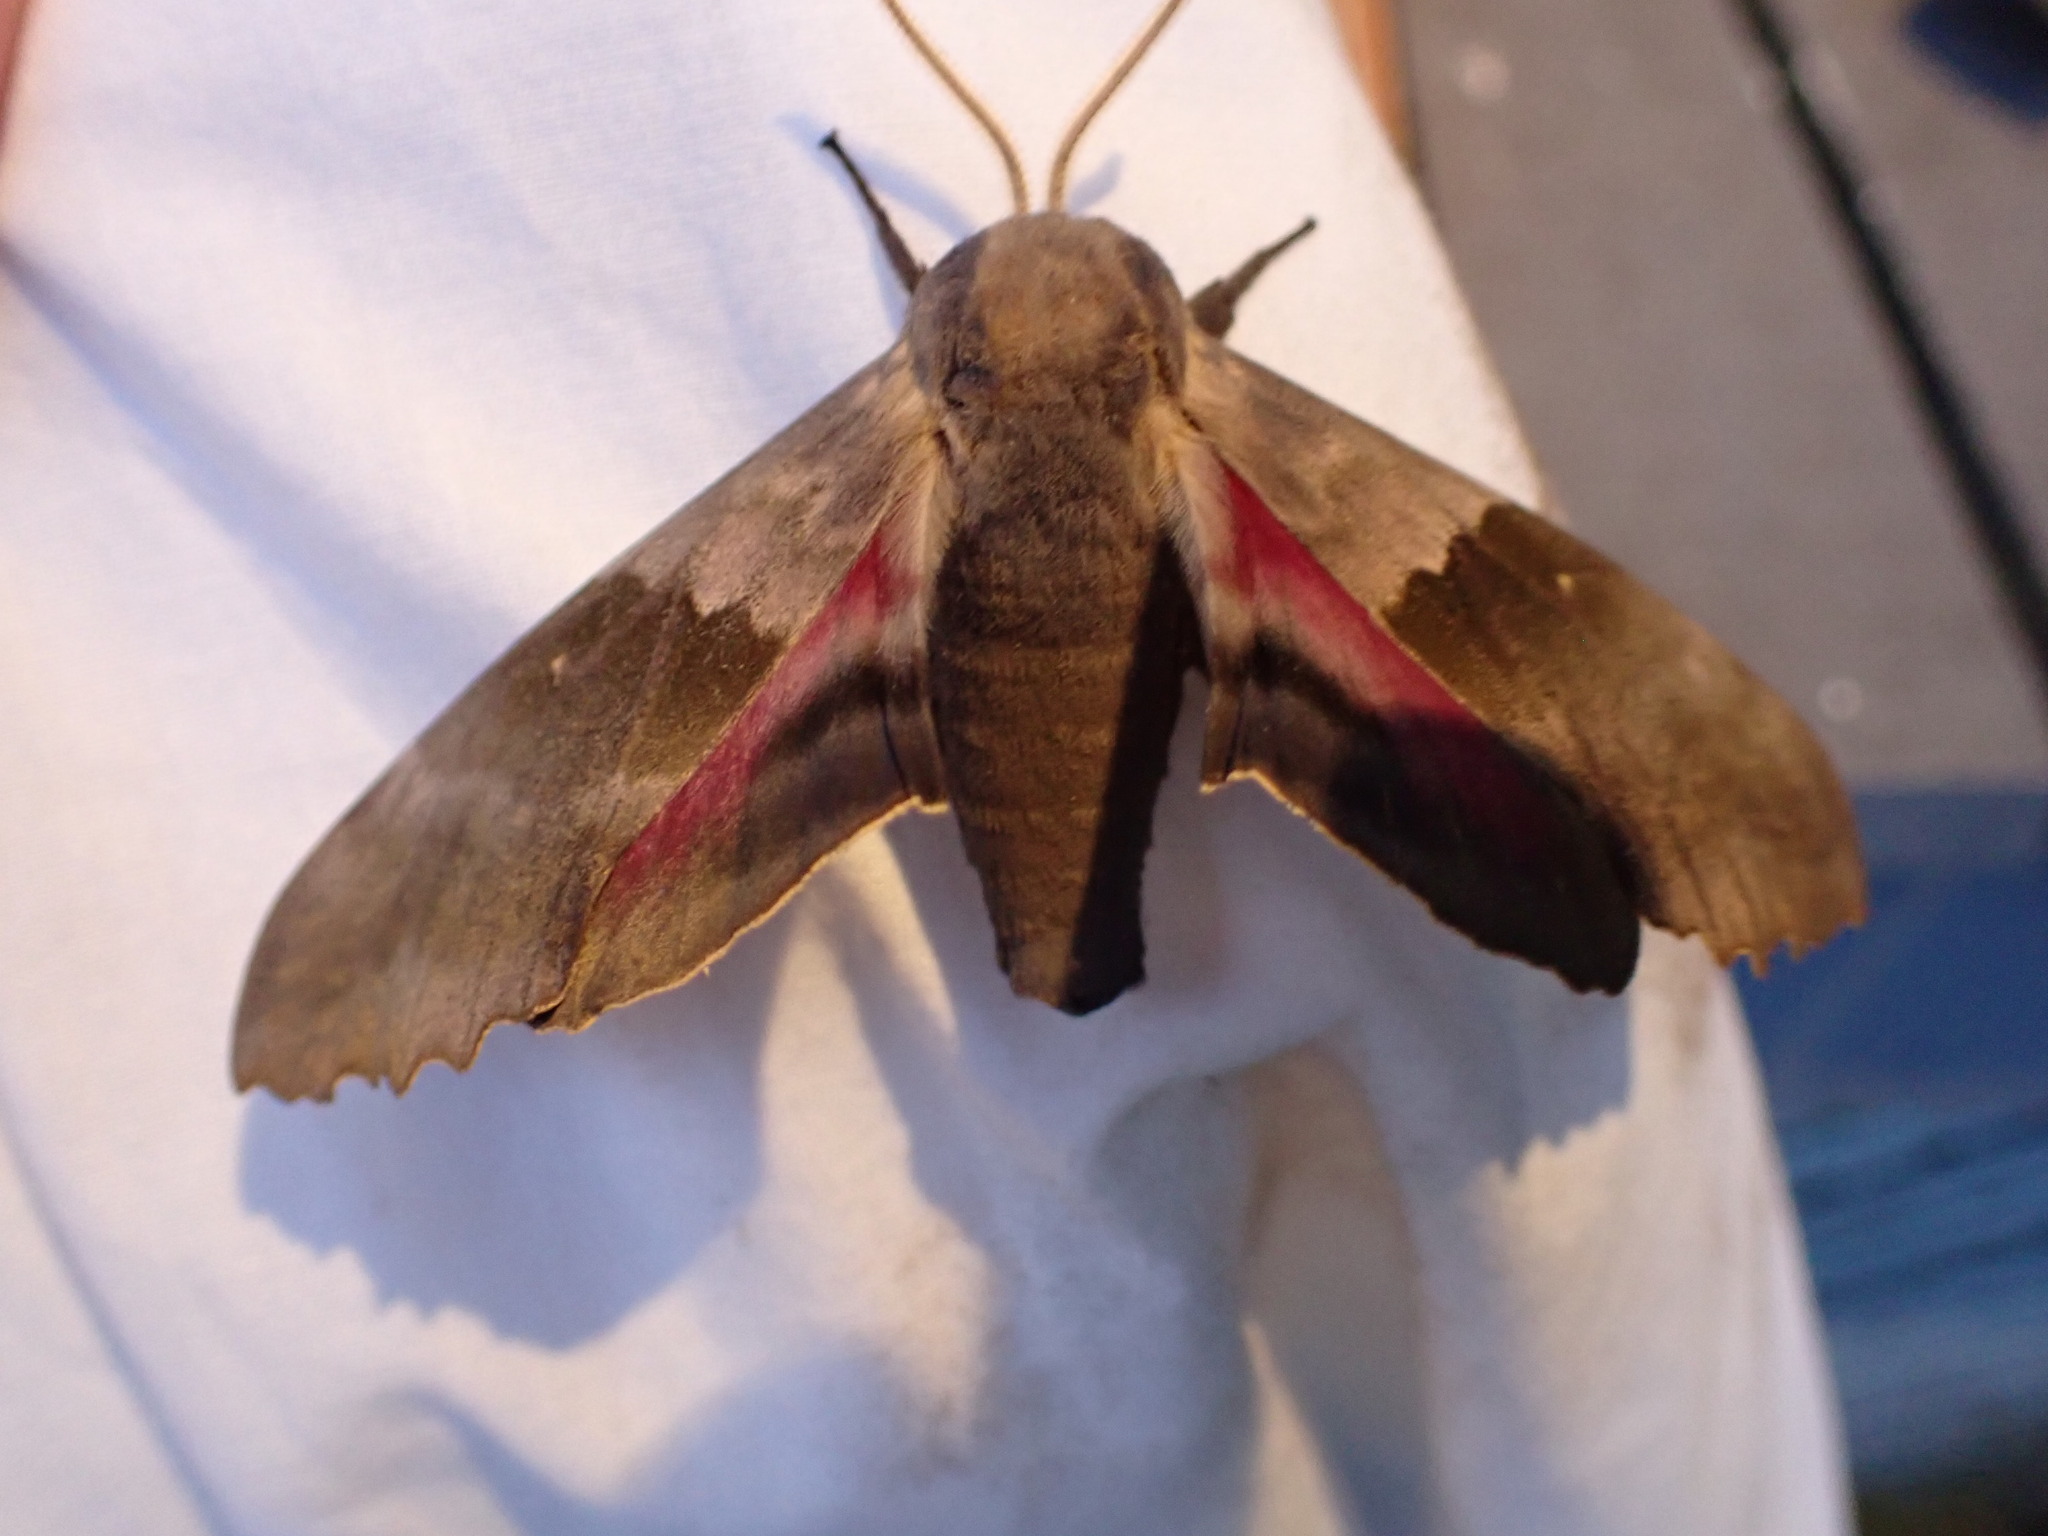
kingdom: Animalia
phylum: Arthropoda
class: Insecta
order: Lepidoptera
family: Sphingidae
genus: Pachysphinx
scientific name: Pachysphinx modesta
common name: Big poplar sphinx
